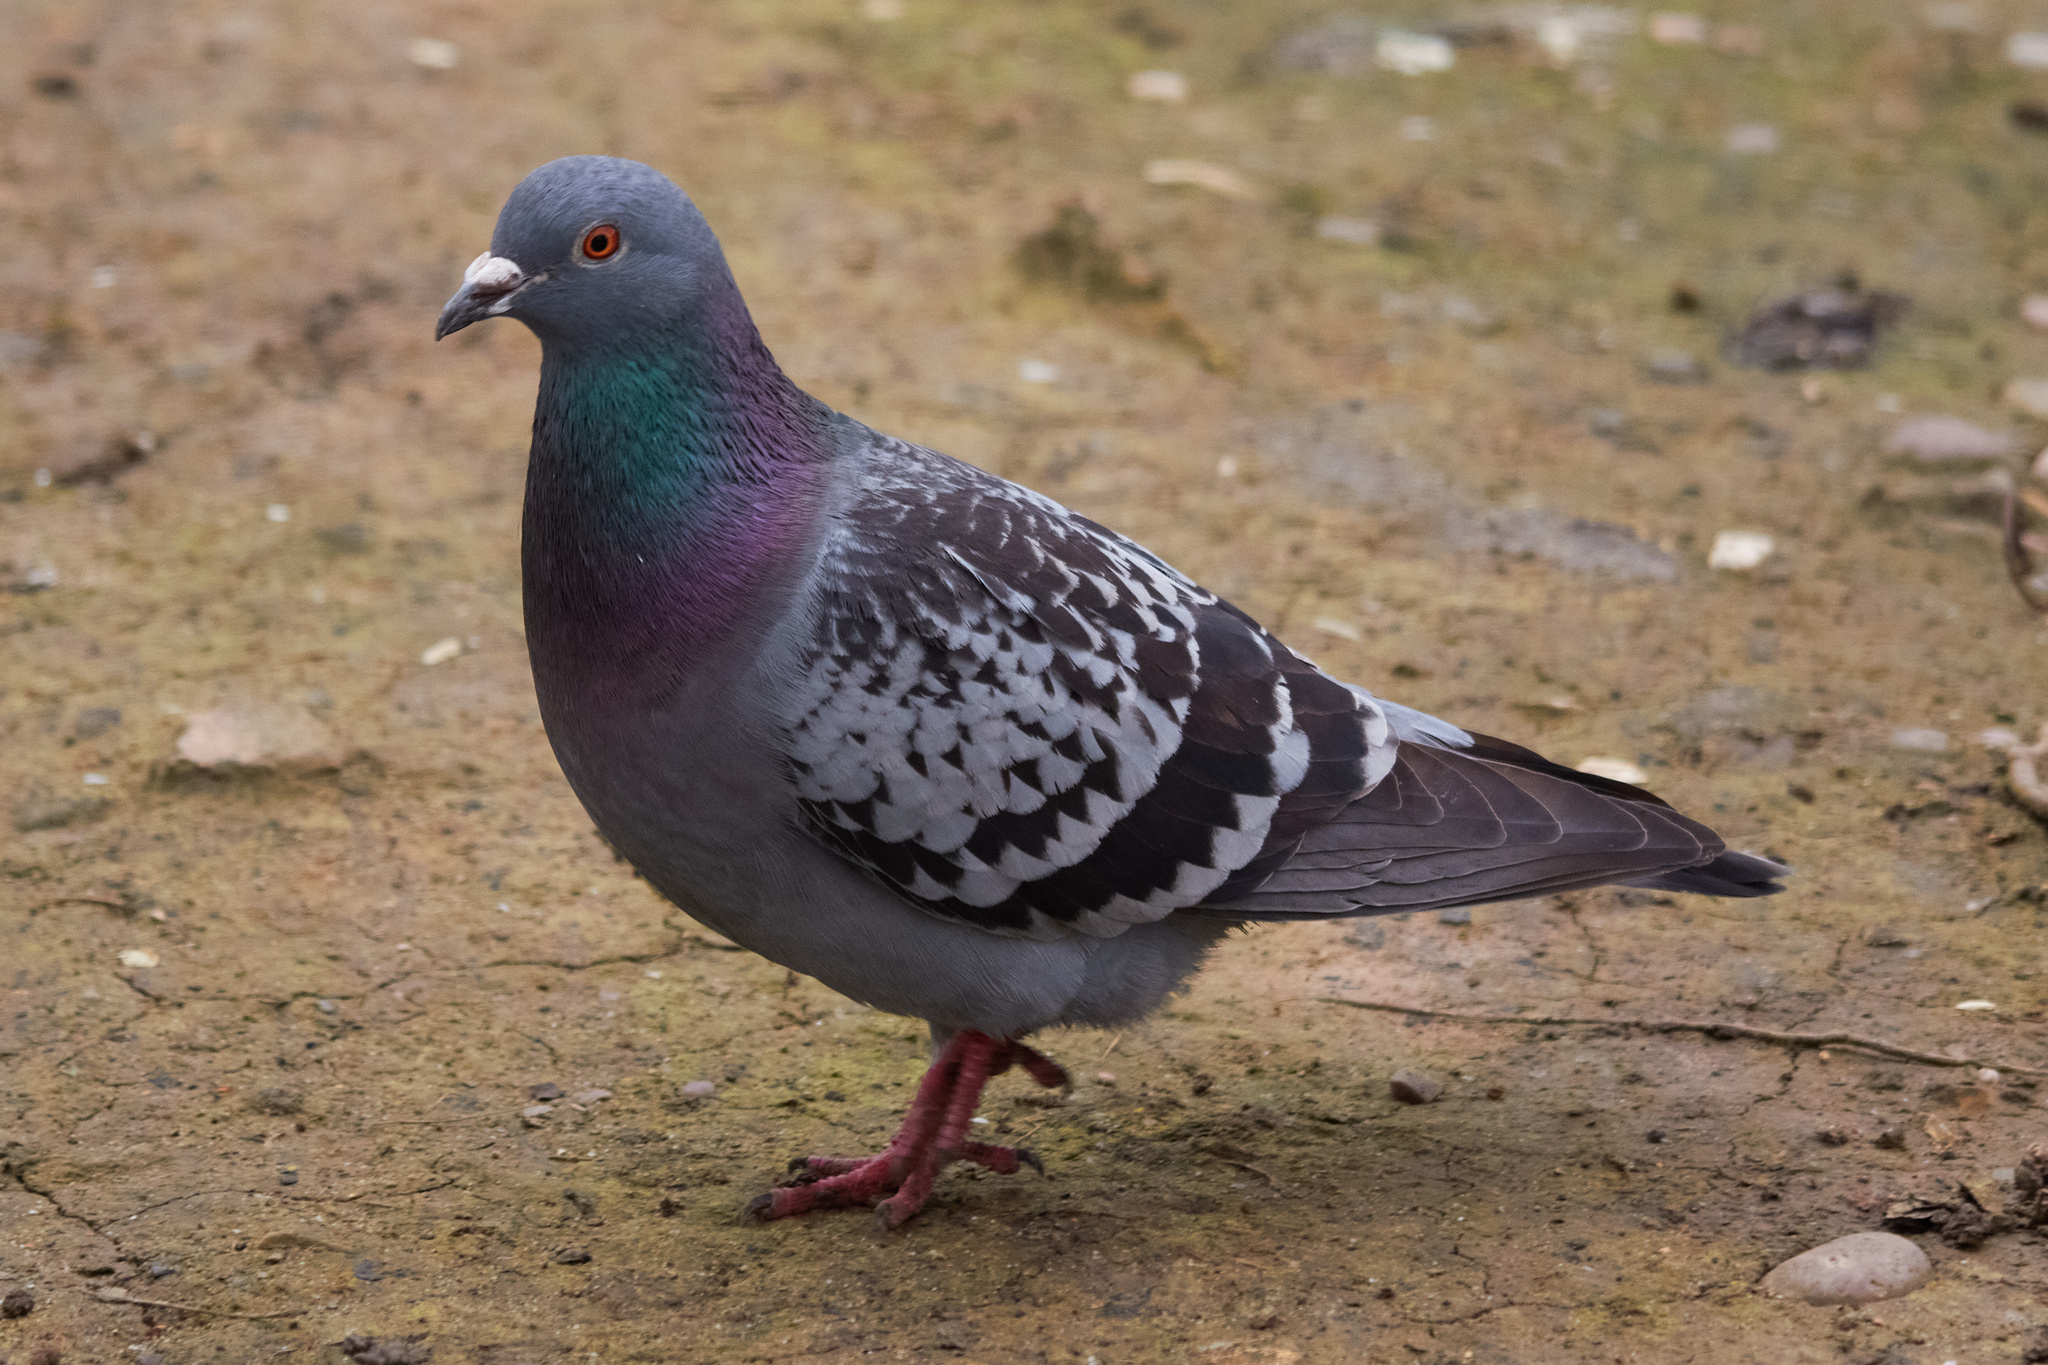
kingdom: Animalia
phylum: Chordata
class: Aves
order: Columbiformes
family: Columbidae
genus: Columba
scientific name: Columba livia
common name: Rock pigeon
